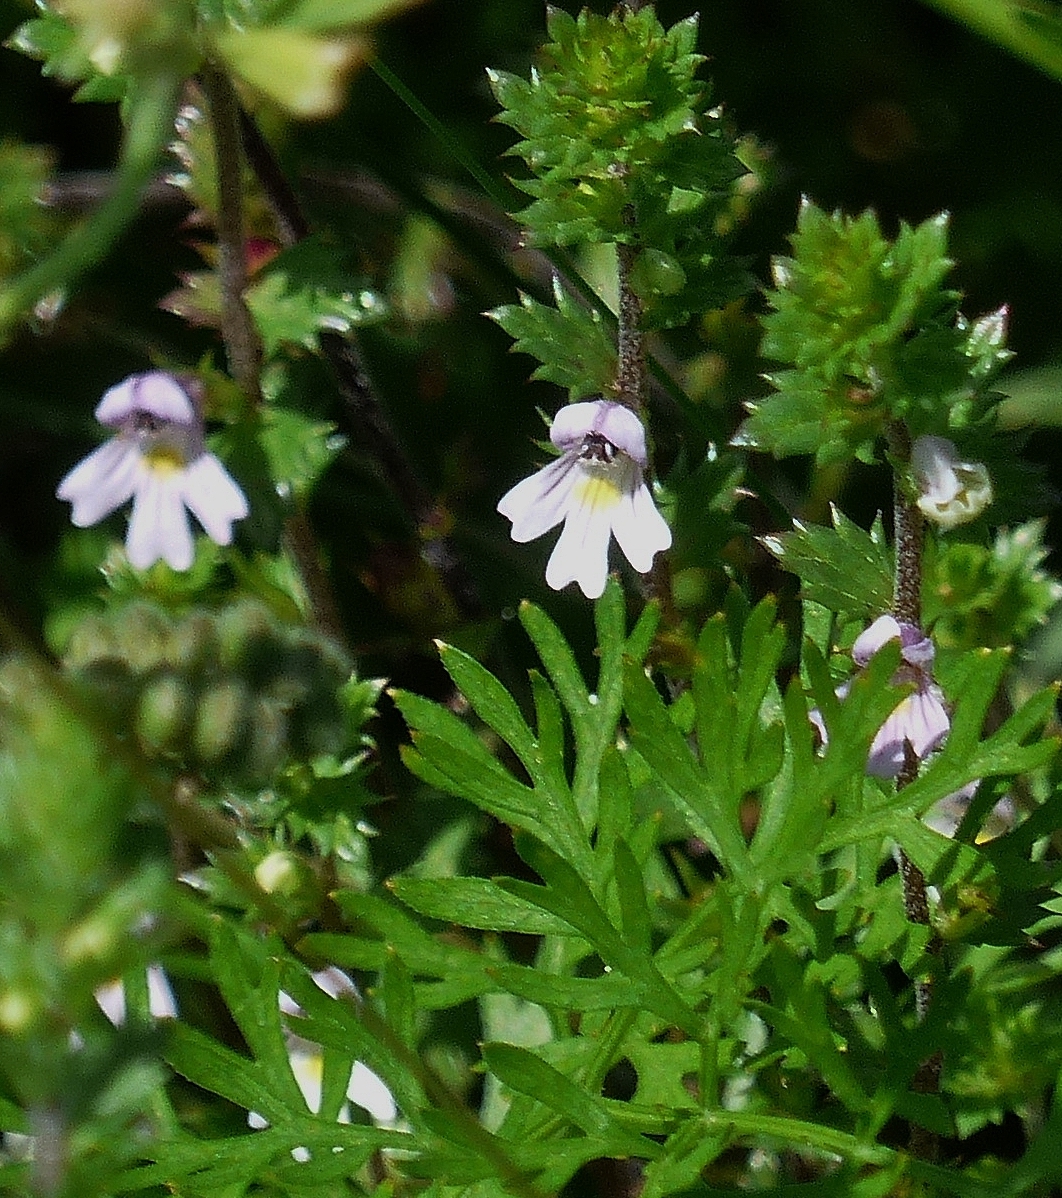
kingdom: Plantae
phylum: Tracheophyta
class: Magnoliopsida
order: Lamiales
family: Orobanchaceae
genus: Euphrasia
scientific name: Euphrasia stricta
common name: Drug eyebright
